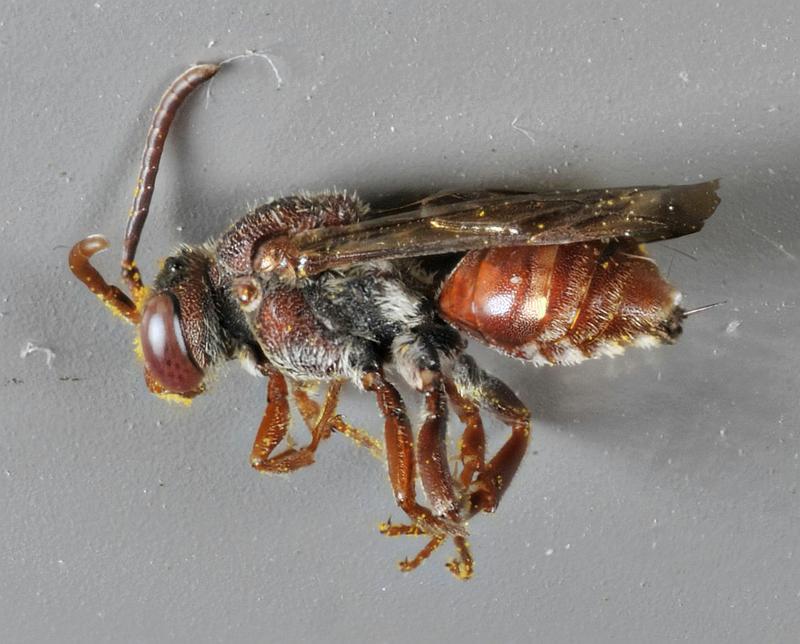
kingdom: Animalia
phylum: Arthropoda
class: Insecta
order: Hymenoptera
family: Apidae
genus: Nomada
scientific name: Nomada articulata
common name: Articulated nomad
